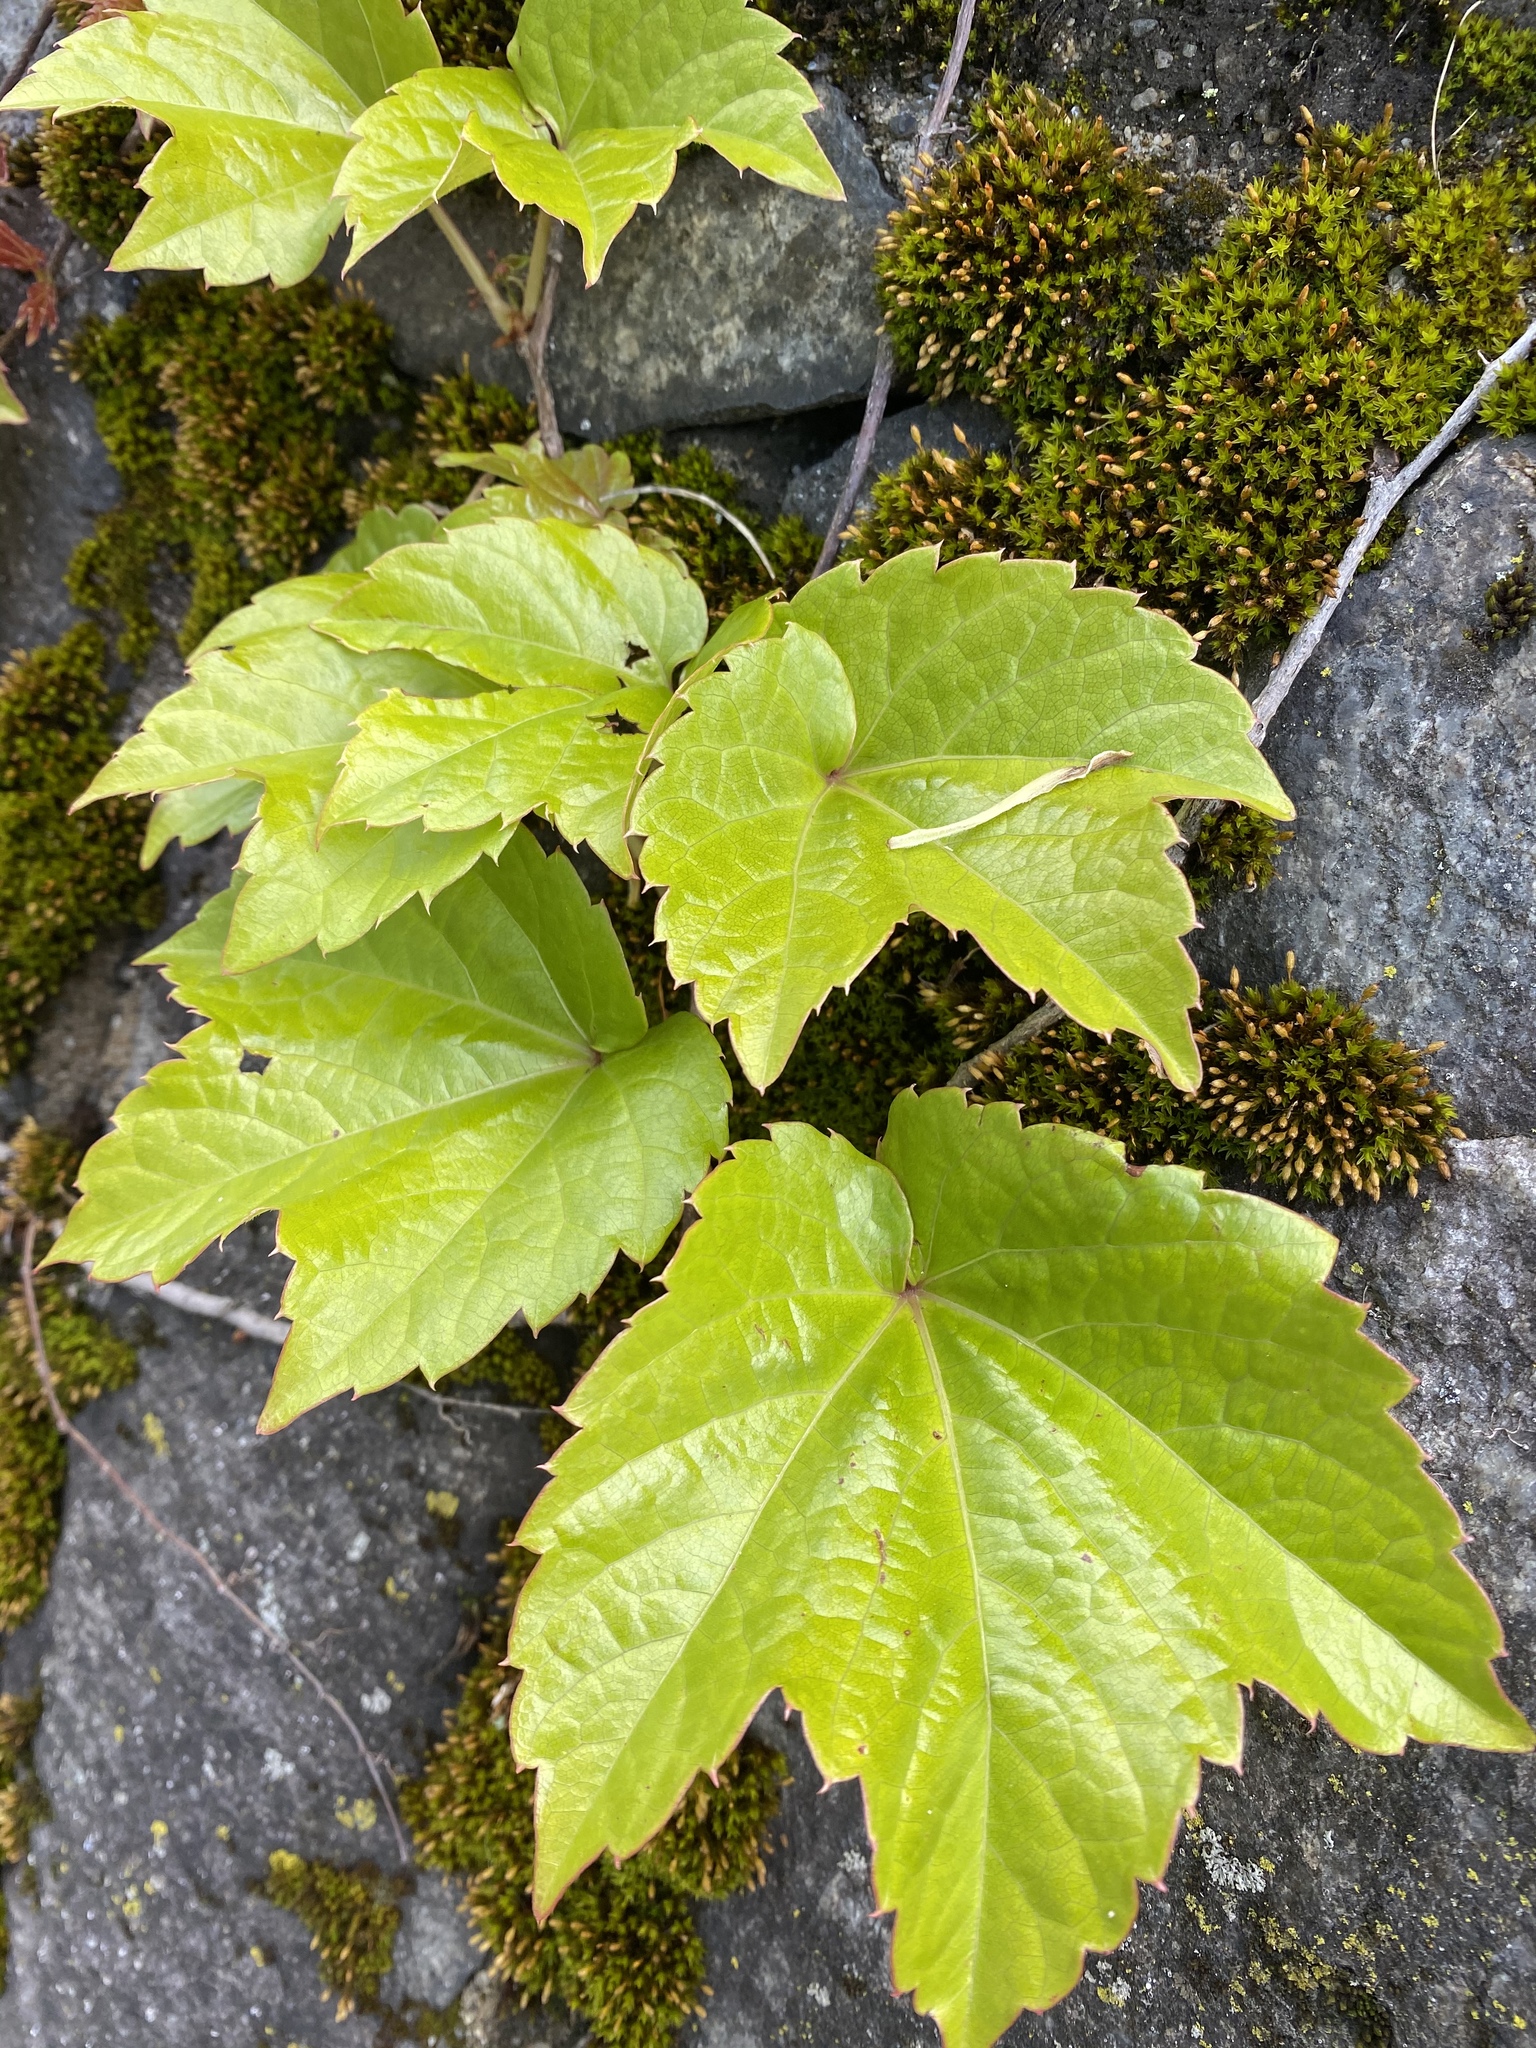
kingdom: Plantae
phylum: Tracheophyta
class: Magnoliopsida
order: Vitales
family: Vitaceae
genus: Parthenocissus
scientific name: Parthenocissus tricuspidata
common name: Boston ivy
